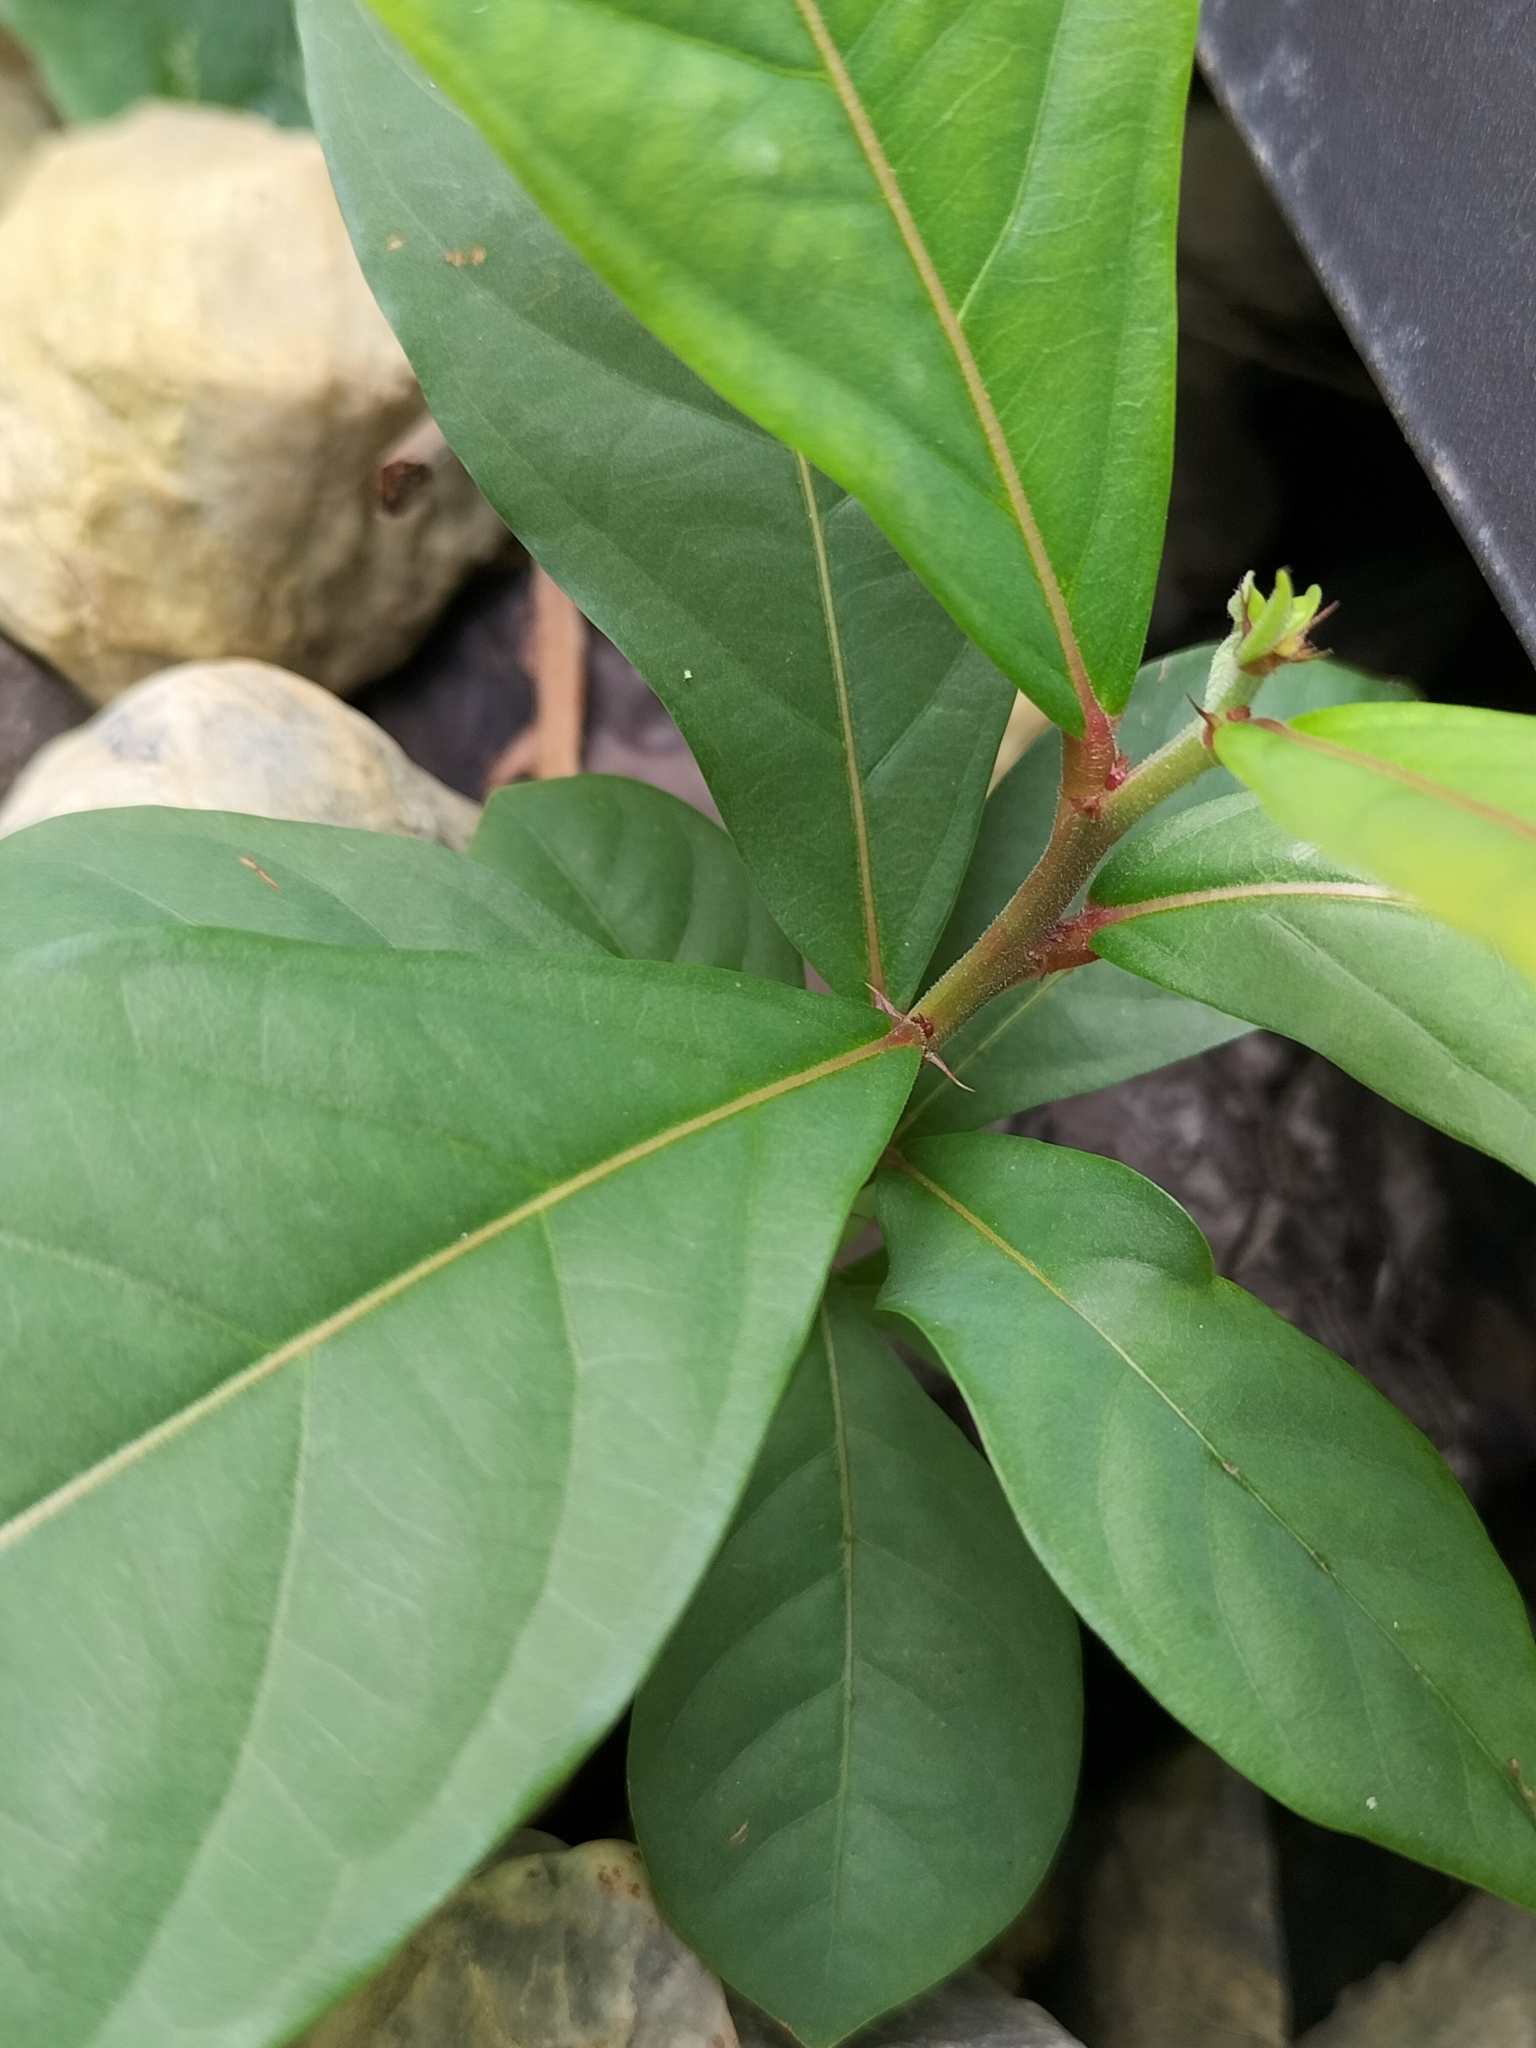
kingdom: Plantae
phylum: Tracheophyta
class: Magnoliopsida
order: Malpighiales
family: Phyllanthaceae
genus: Glochidion
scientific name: Glochidion philippicum
